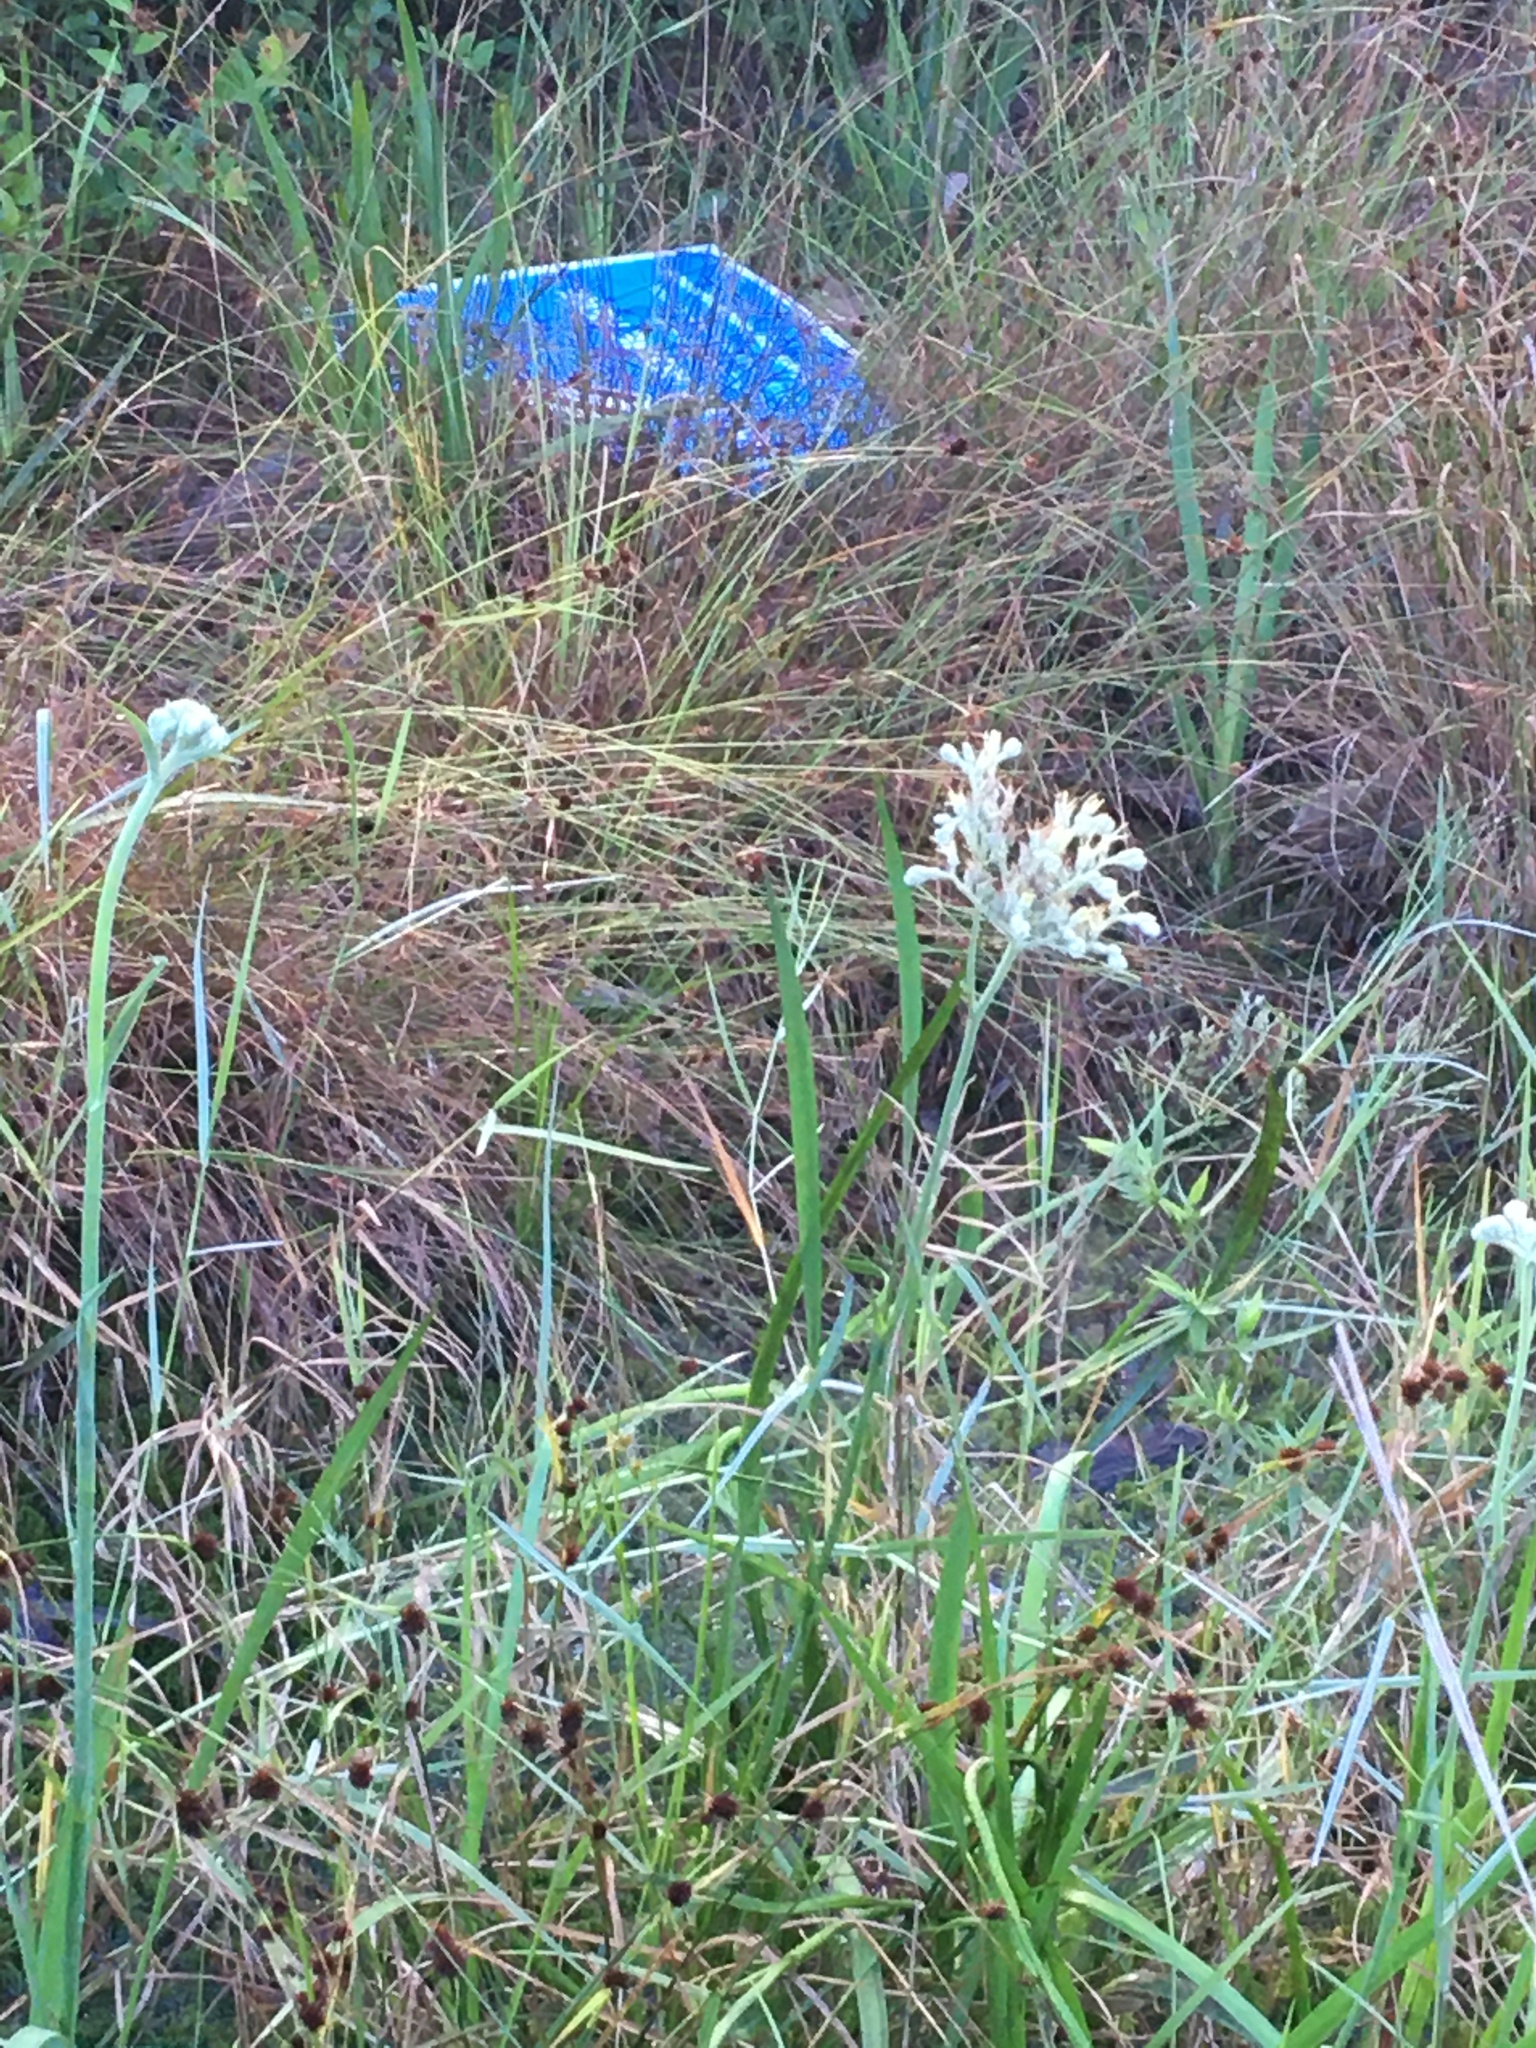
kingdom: Plantae
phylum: Tracheophyta
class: Liliopsida
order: Commelinales
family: Haemodoraceae
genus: Lachnanthes
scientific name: Lachnanthes caroliana
